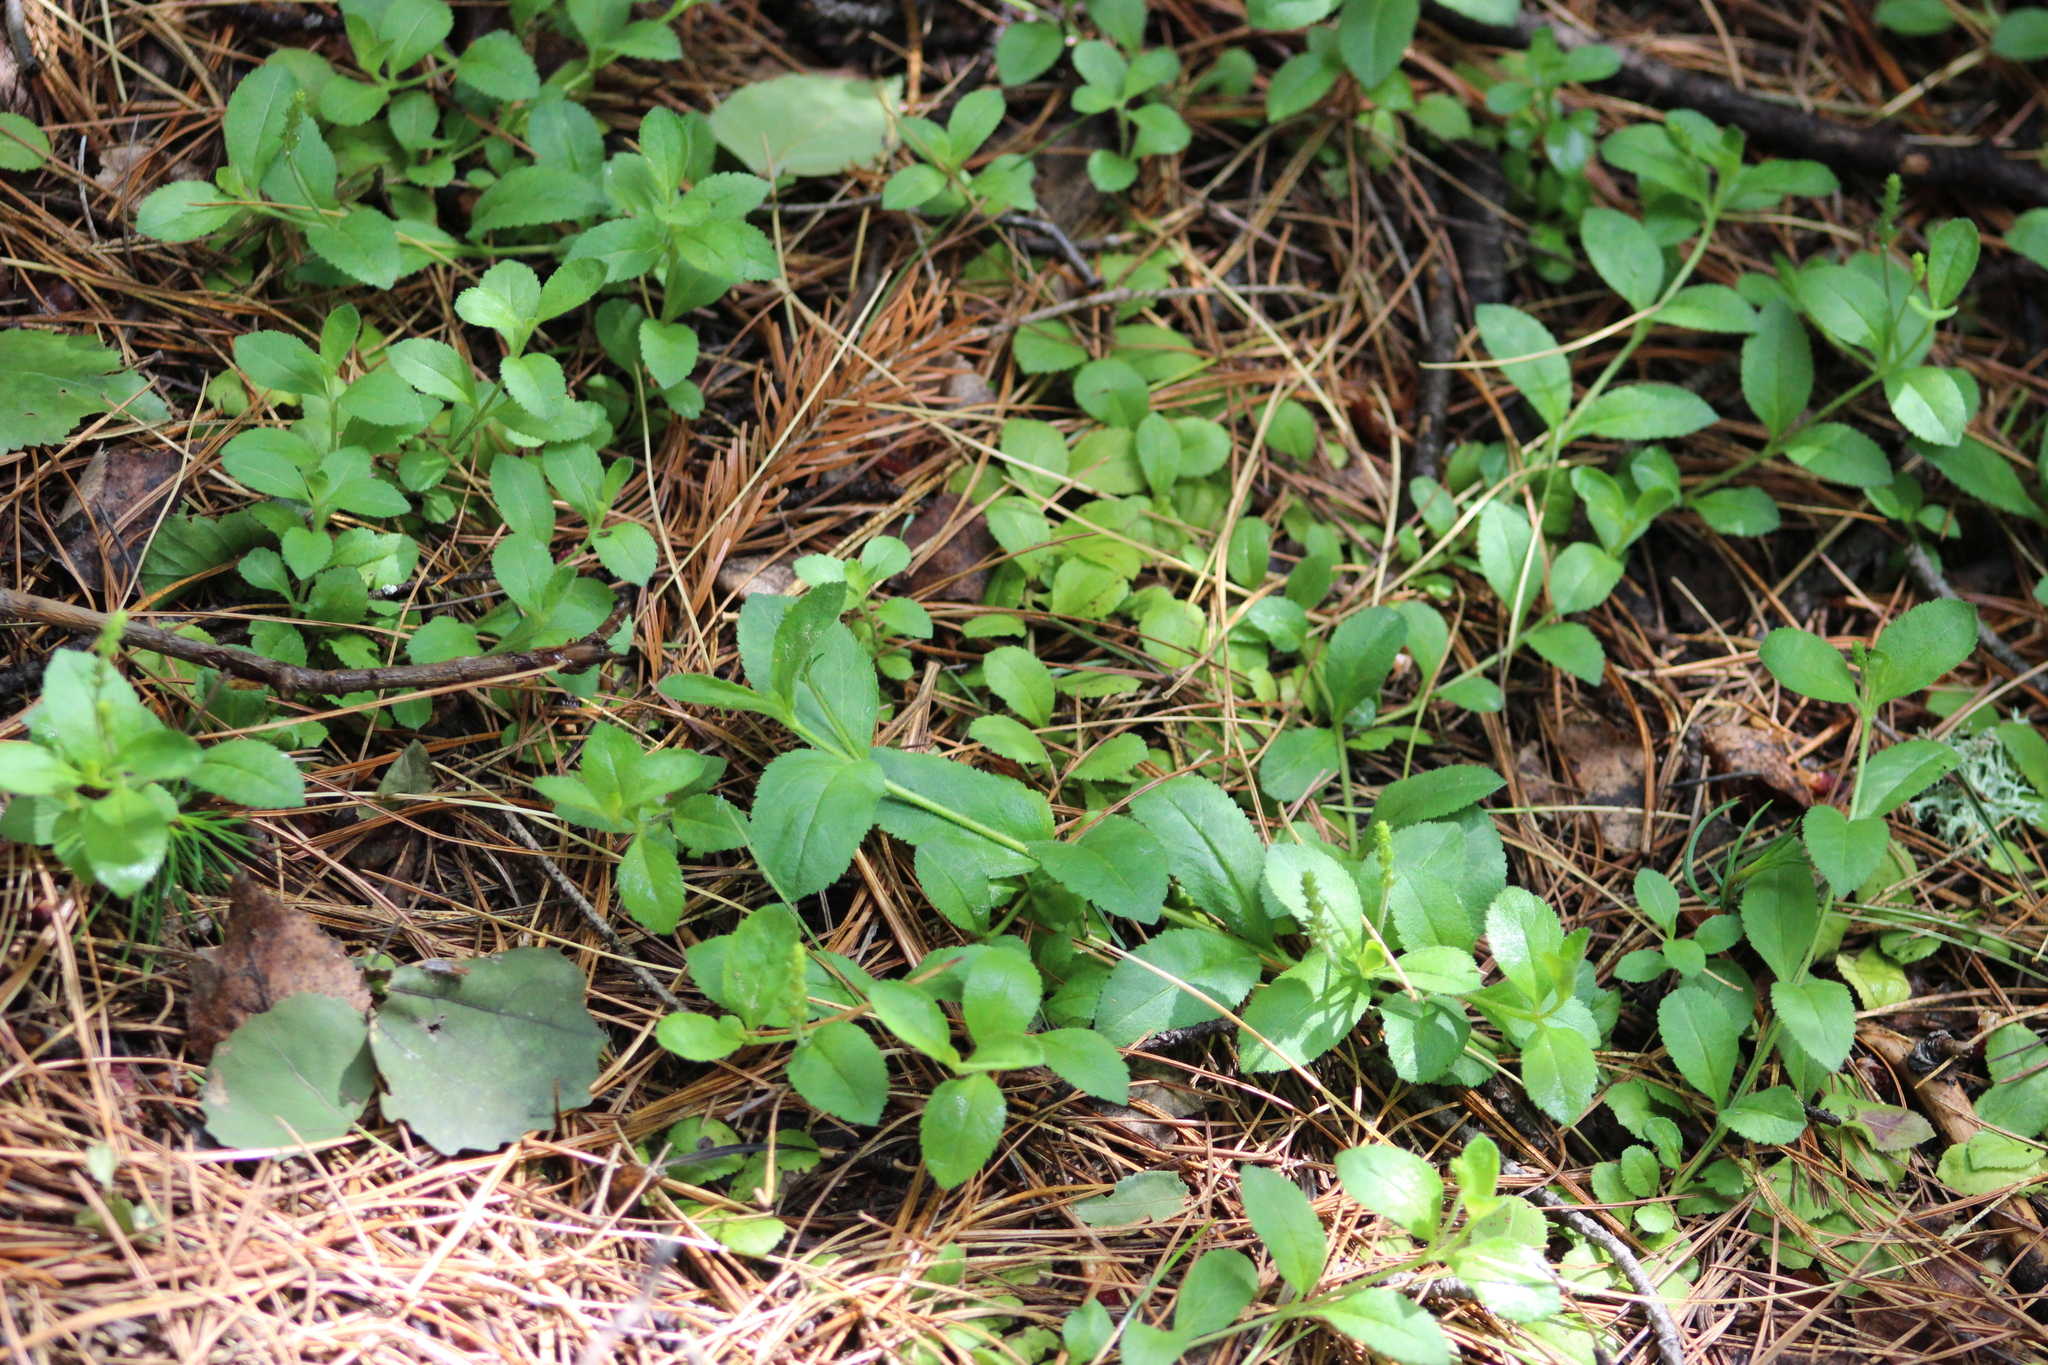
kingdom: Plantae
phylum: Tracheophyta
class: Magnoliopsida
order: Lamiales
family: Plantaginaceae
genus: Veronica
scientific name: Veronica officinalis
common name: Common speedwell
